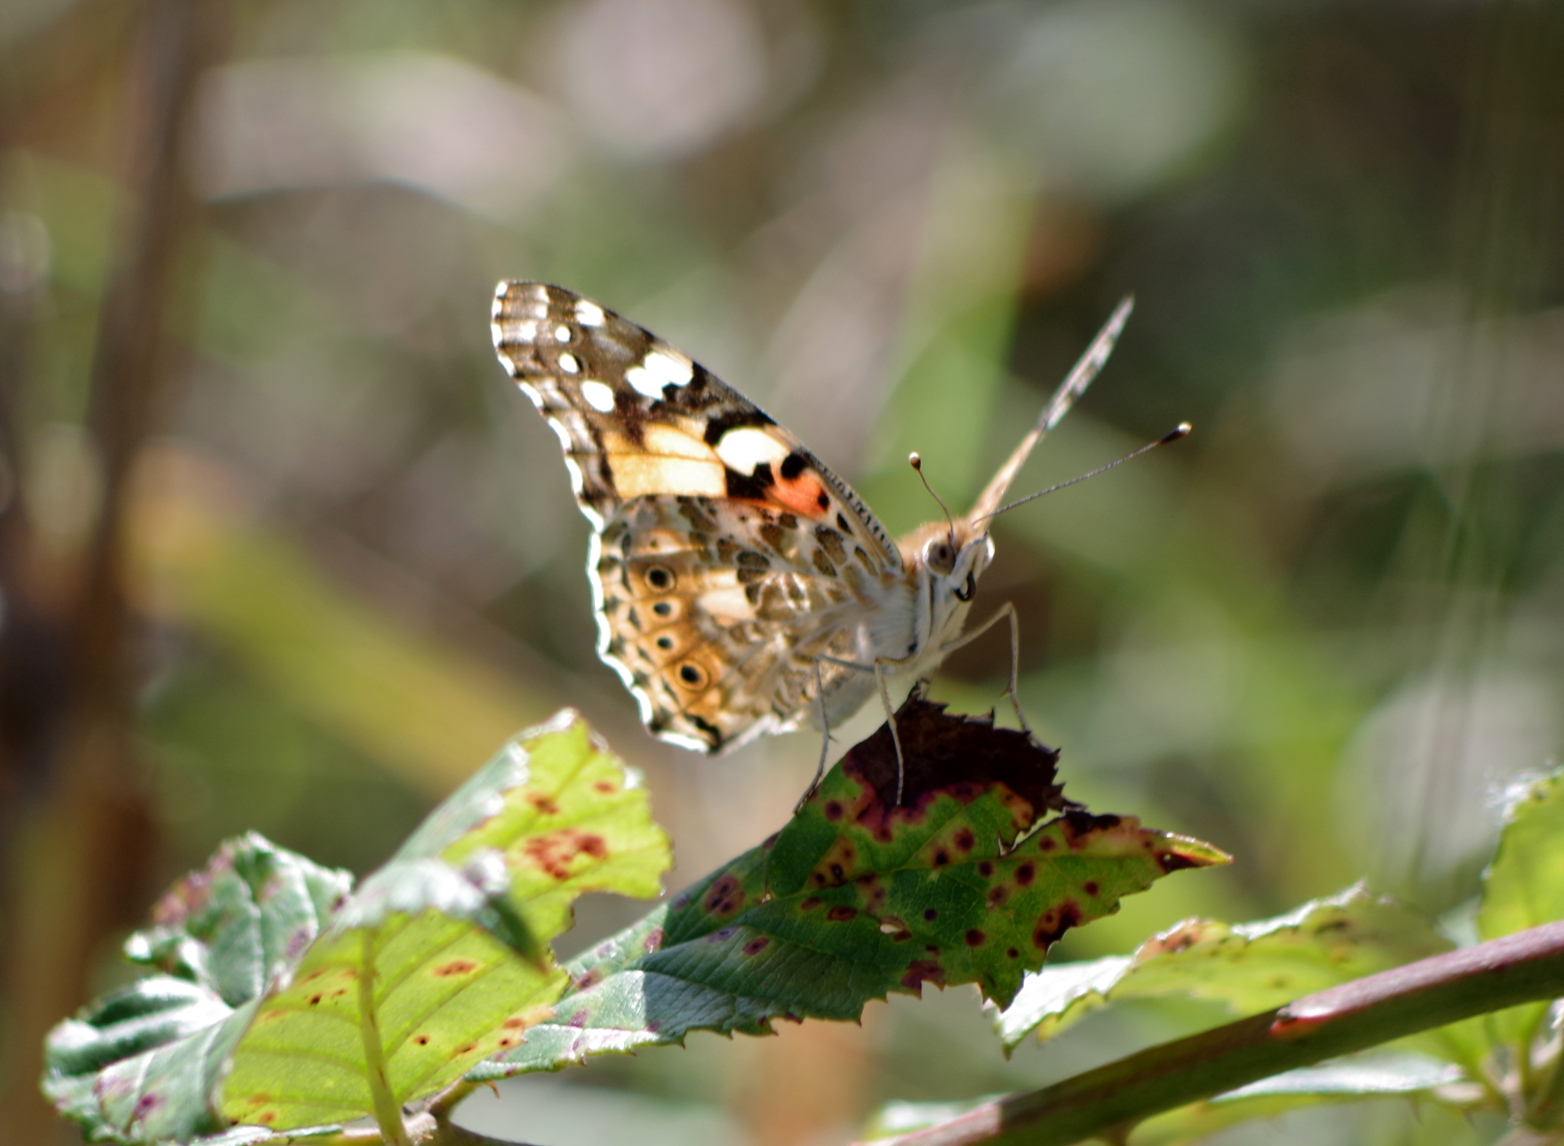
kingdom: Animalia
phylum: Arthropoda
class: Insecta
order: Lepidoptera
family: Nymphalidae
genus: Vanessa
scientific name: Vanessa cardui
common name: Painted lady
